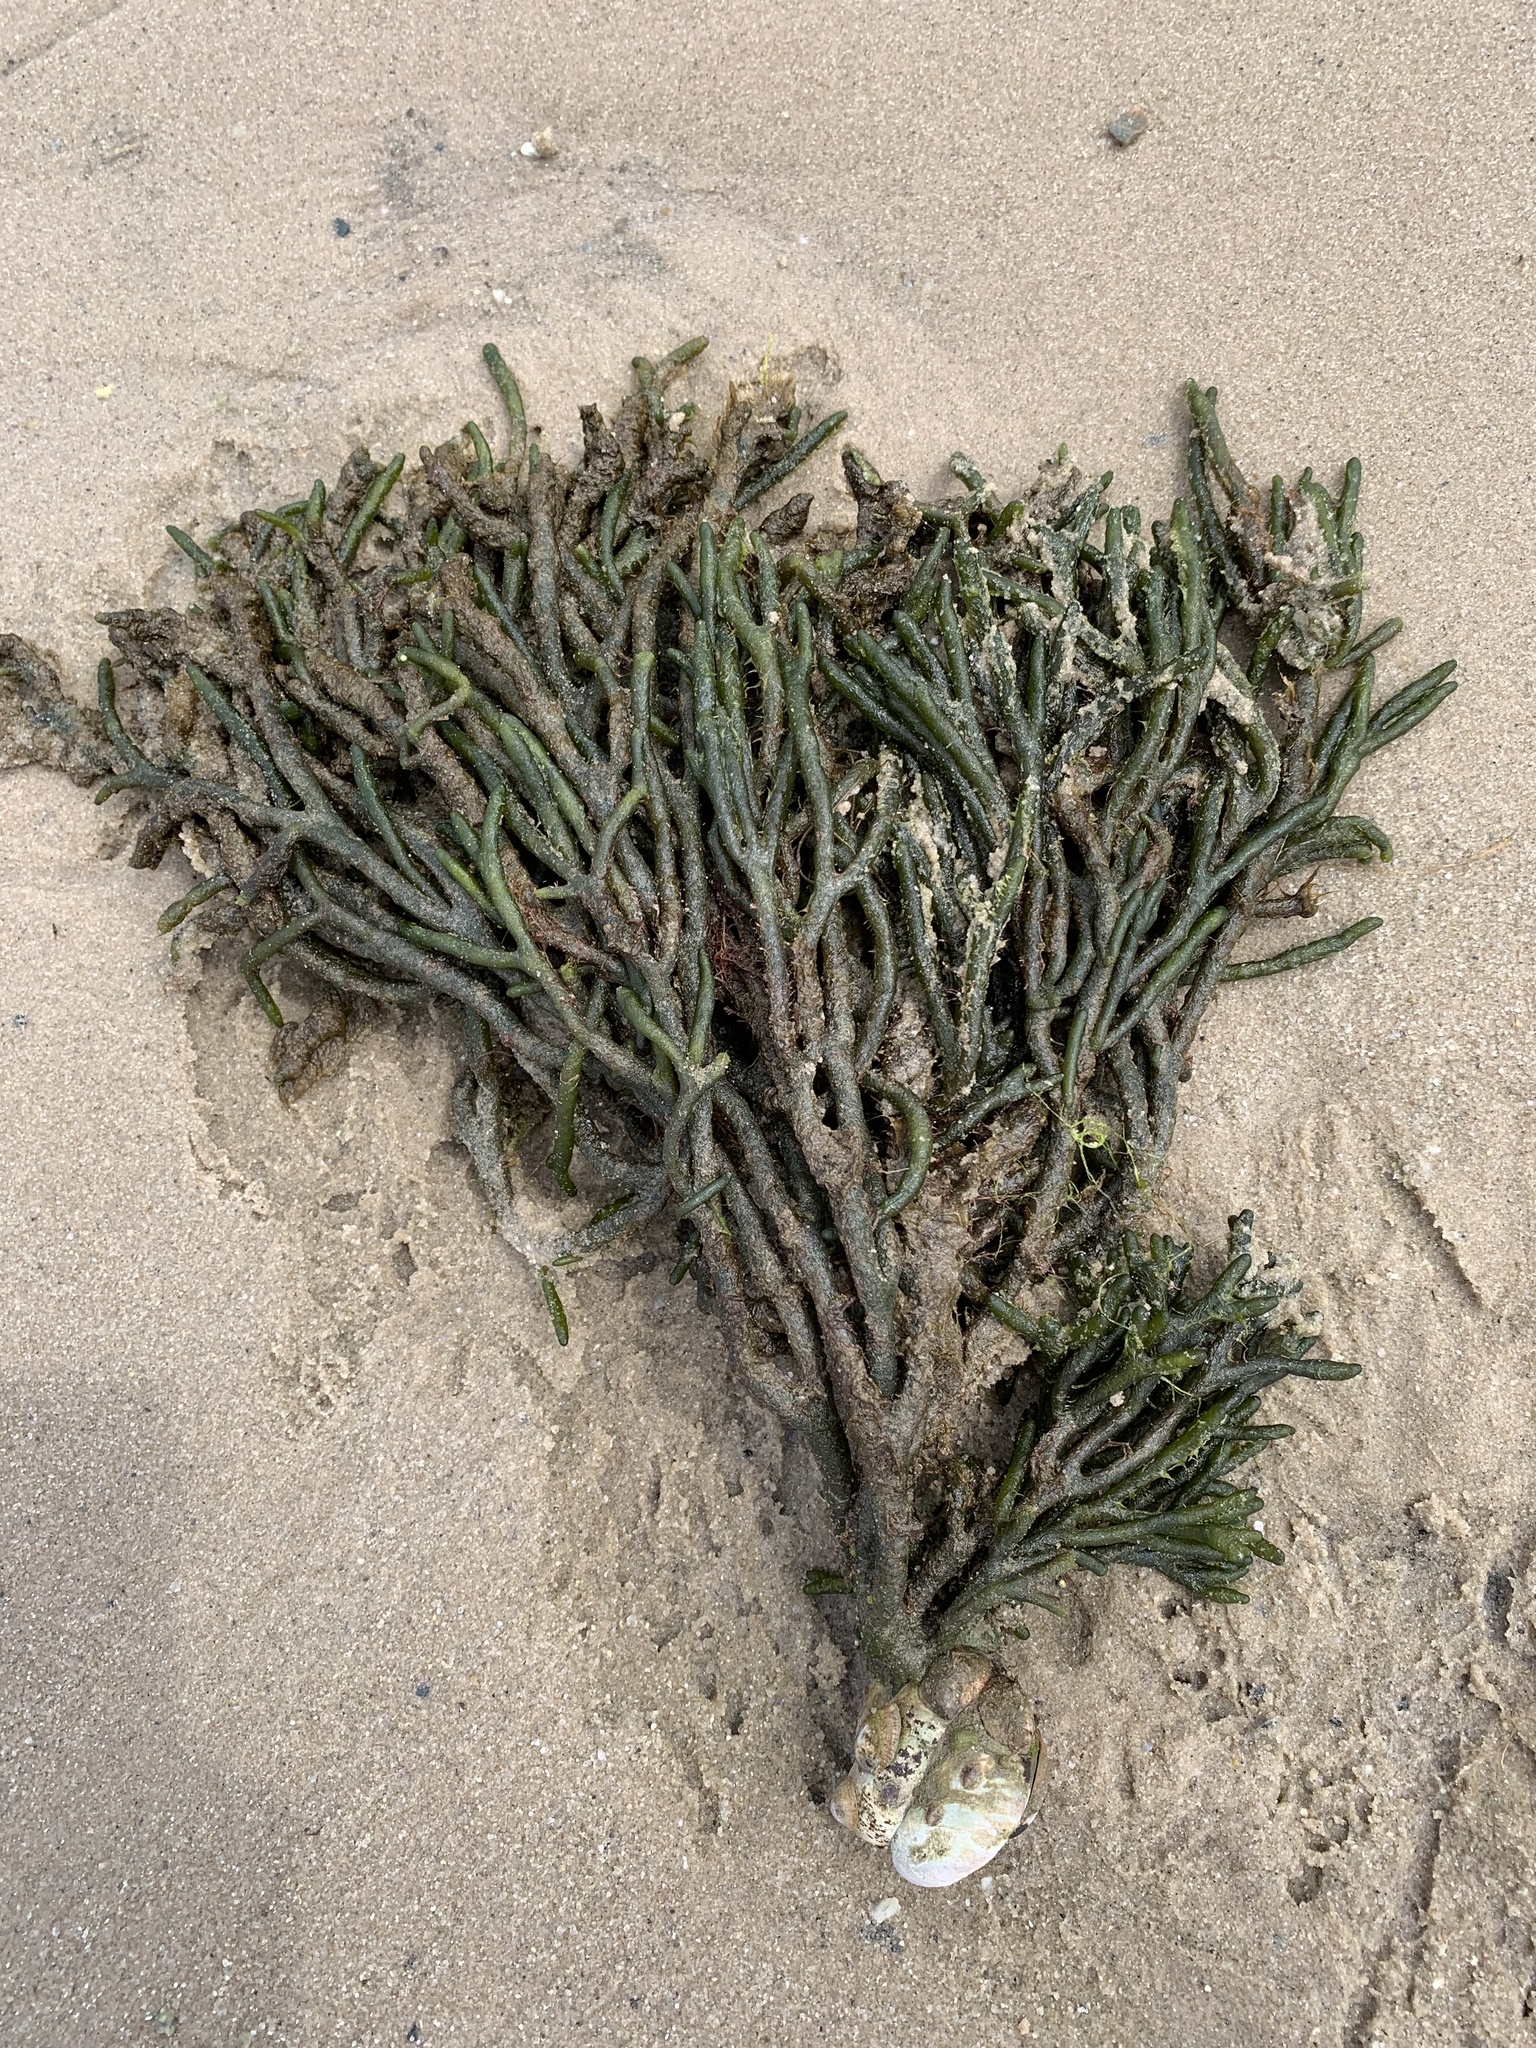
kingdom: Plantae
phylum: Chlorophyta
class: Ulvophyceae
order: Bryopsidales
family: Codiaceae
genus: Codium
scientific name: Codium fragile
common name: Dead man's fingers
